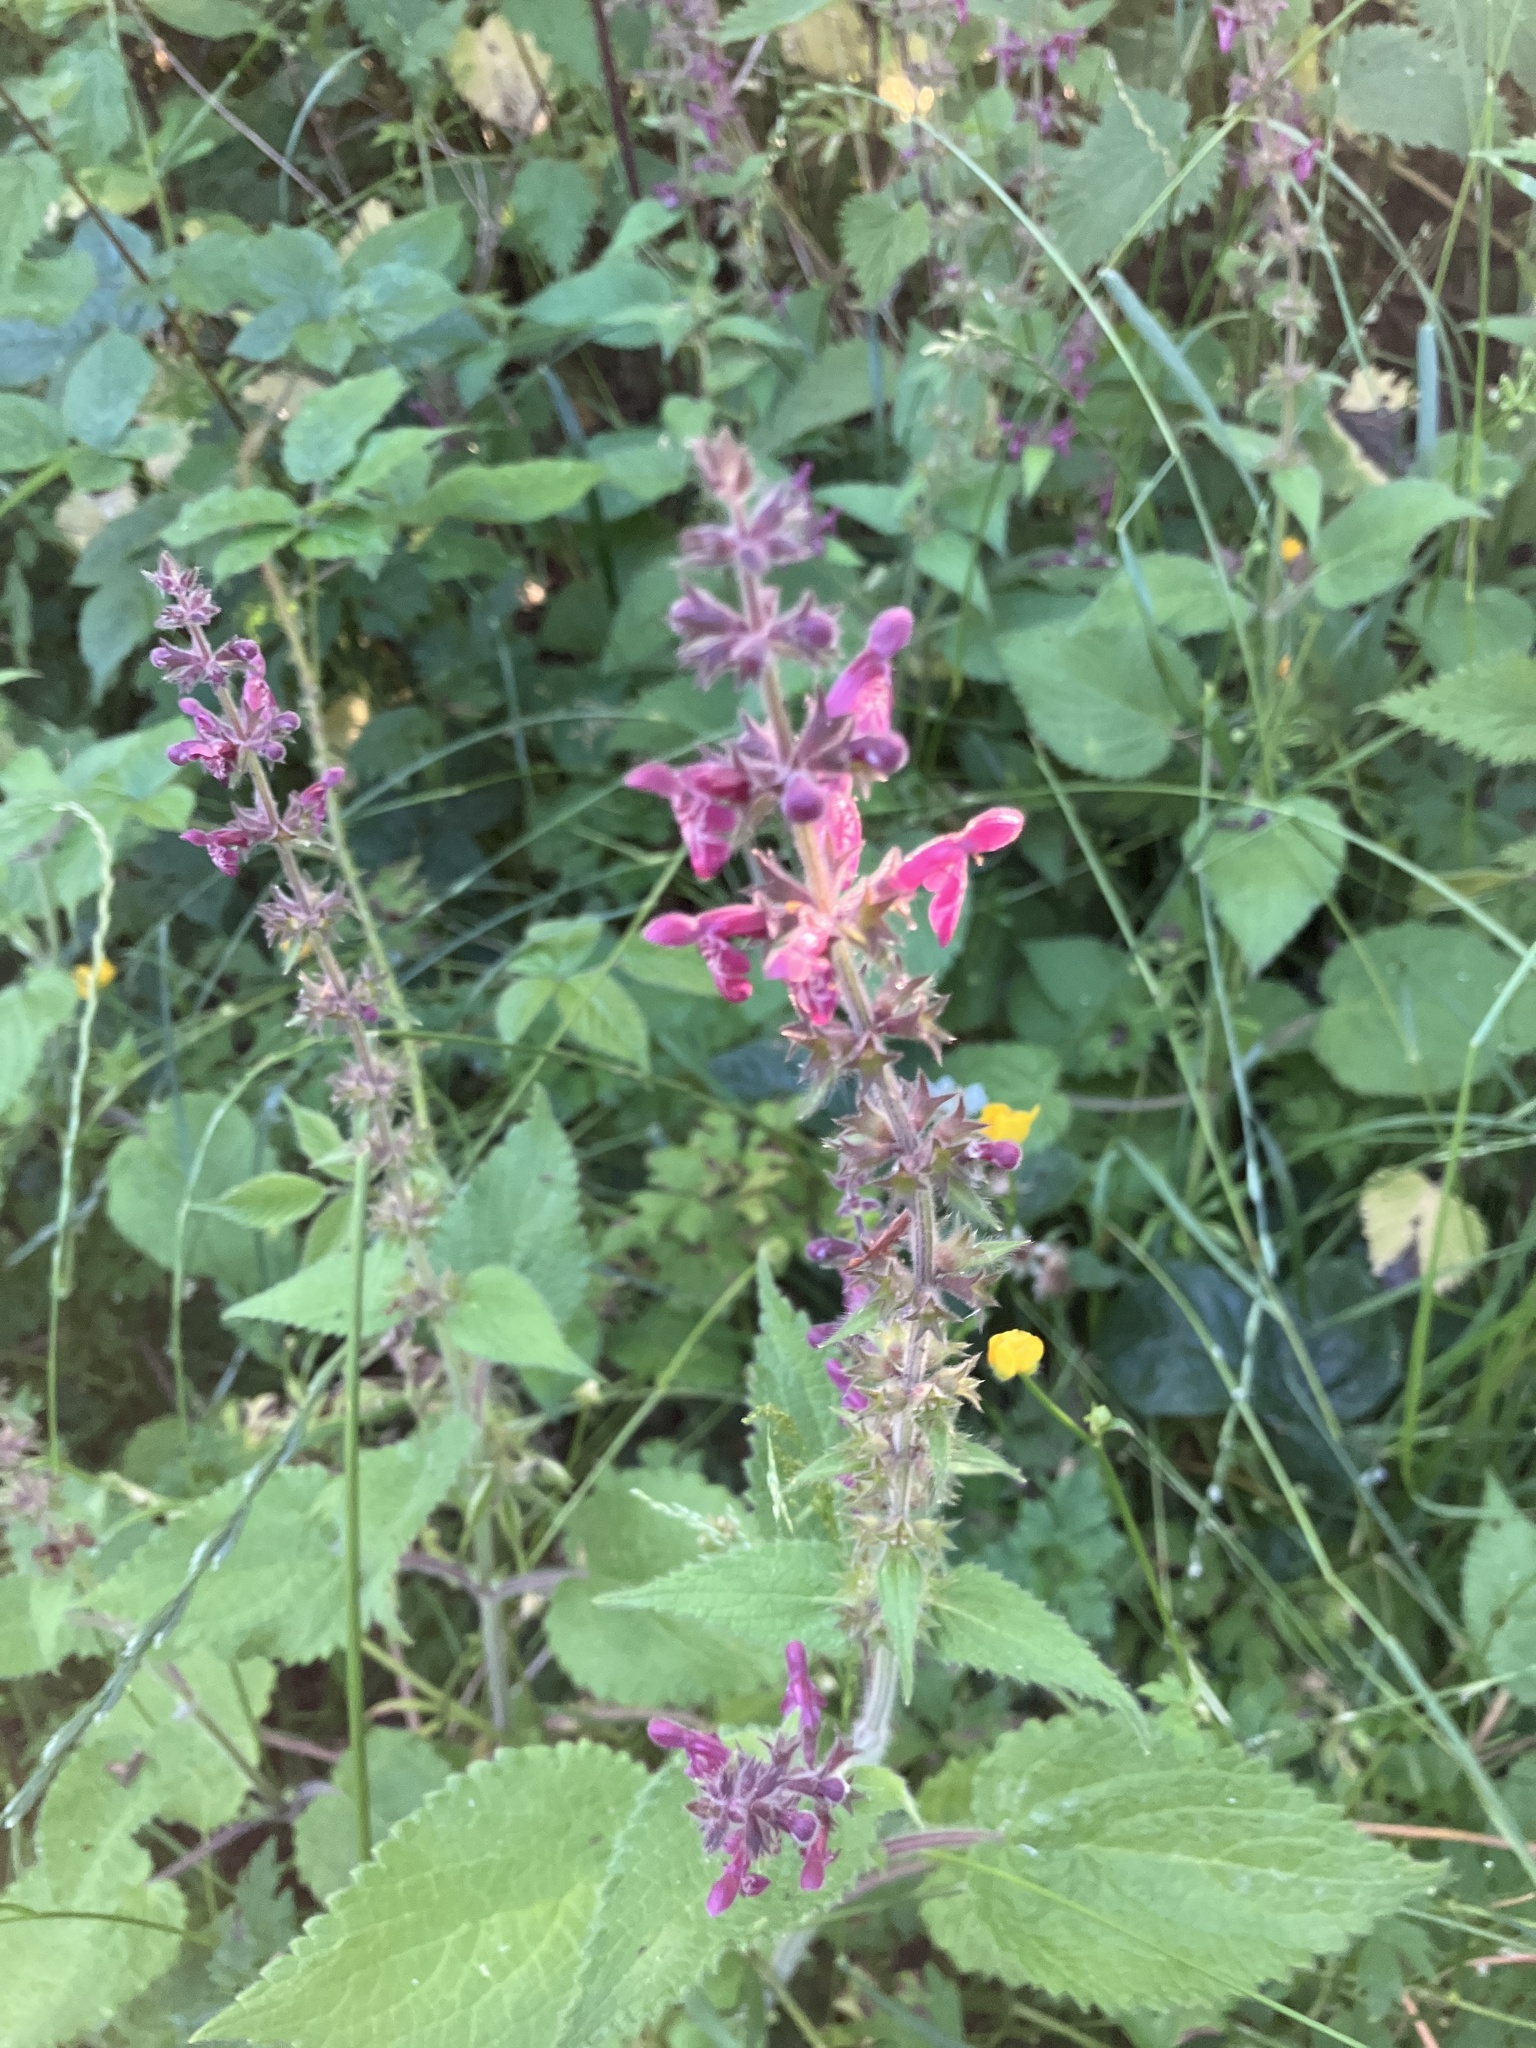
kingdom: Plantae
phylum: Tracheophyta
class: Magnoliopsida
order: Lamiales
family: Lamiaceae
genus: Stachys
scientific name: Stachys sylvatica
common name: Hedge woundwort
